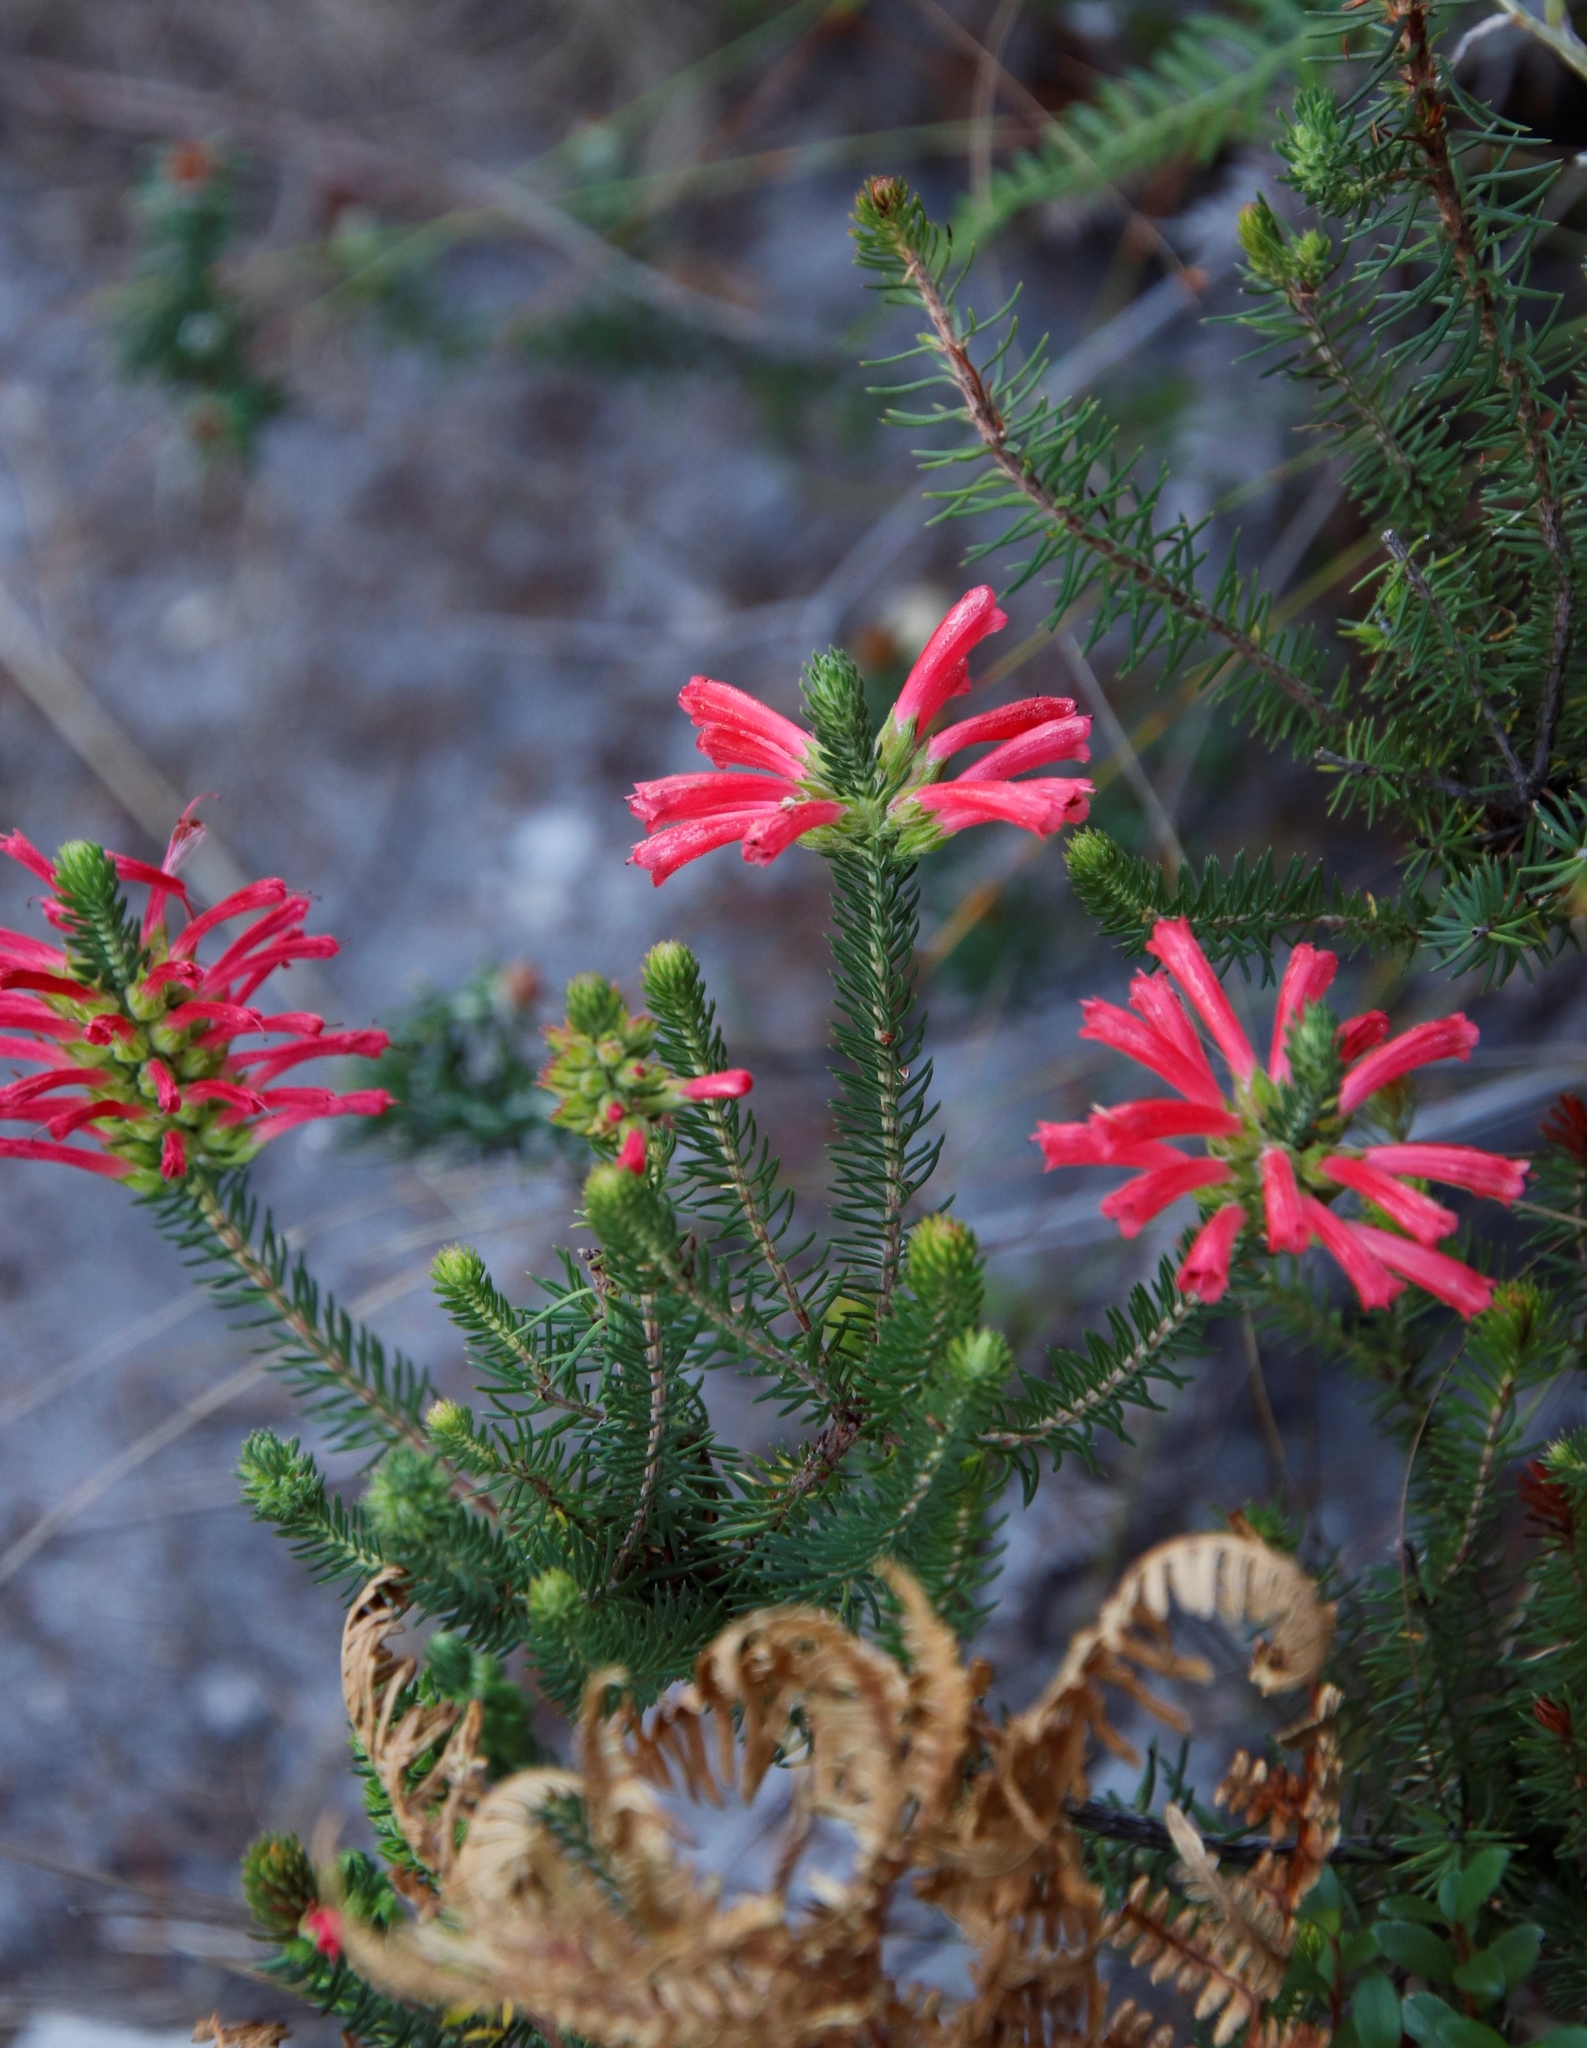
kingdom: Plantae
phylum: Tracheophyta
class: Magnoliopsida
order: Ericales
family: Ericaceae
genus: Erica
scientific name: Erica abietina
